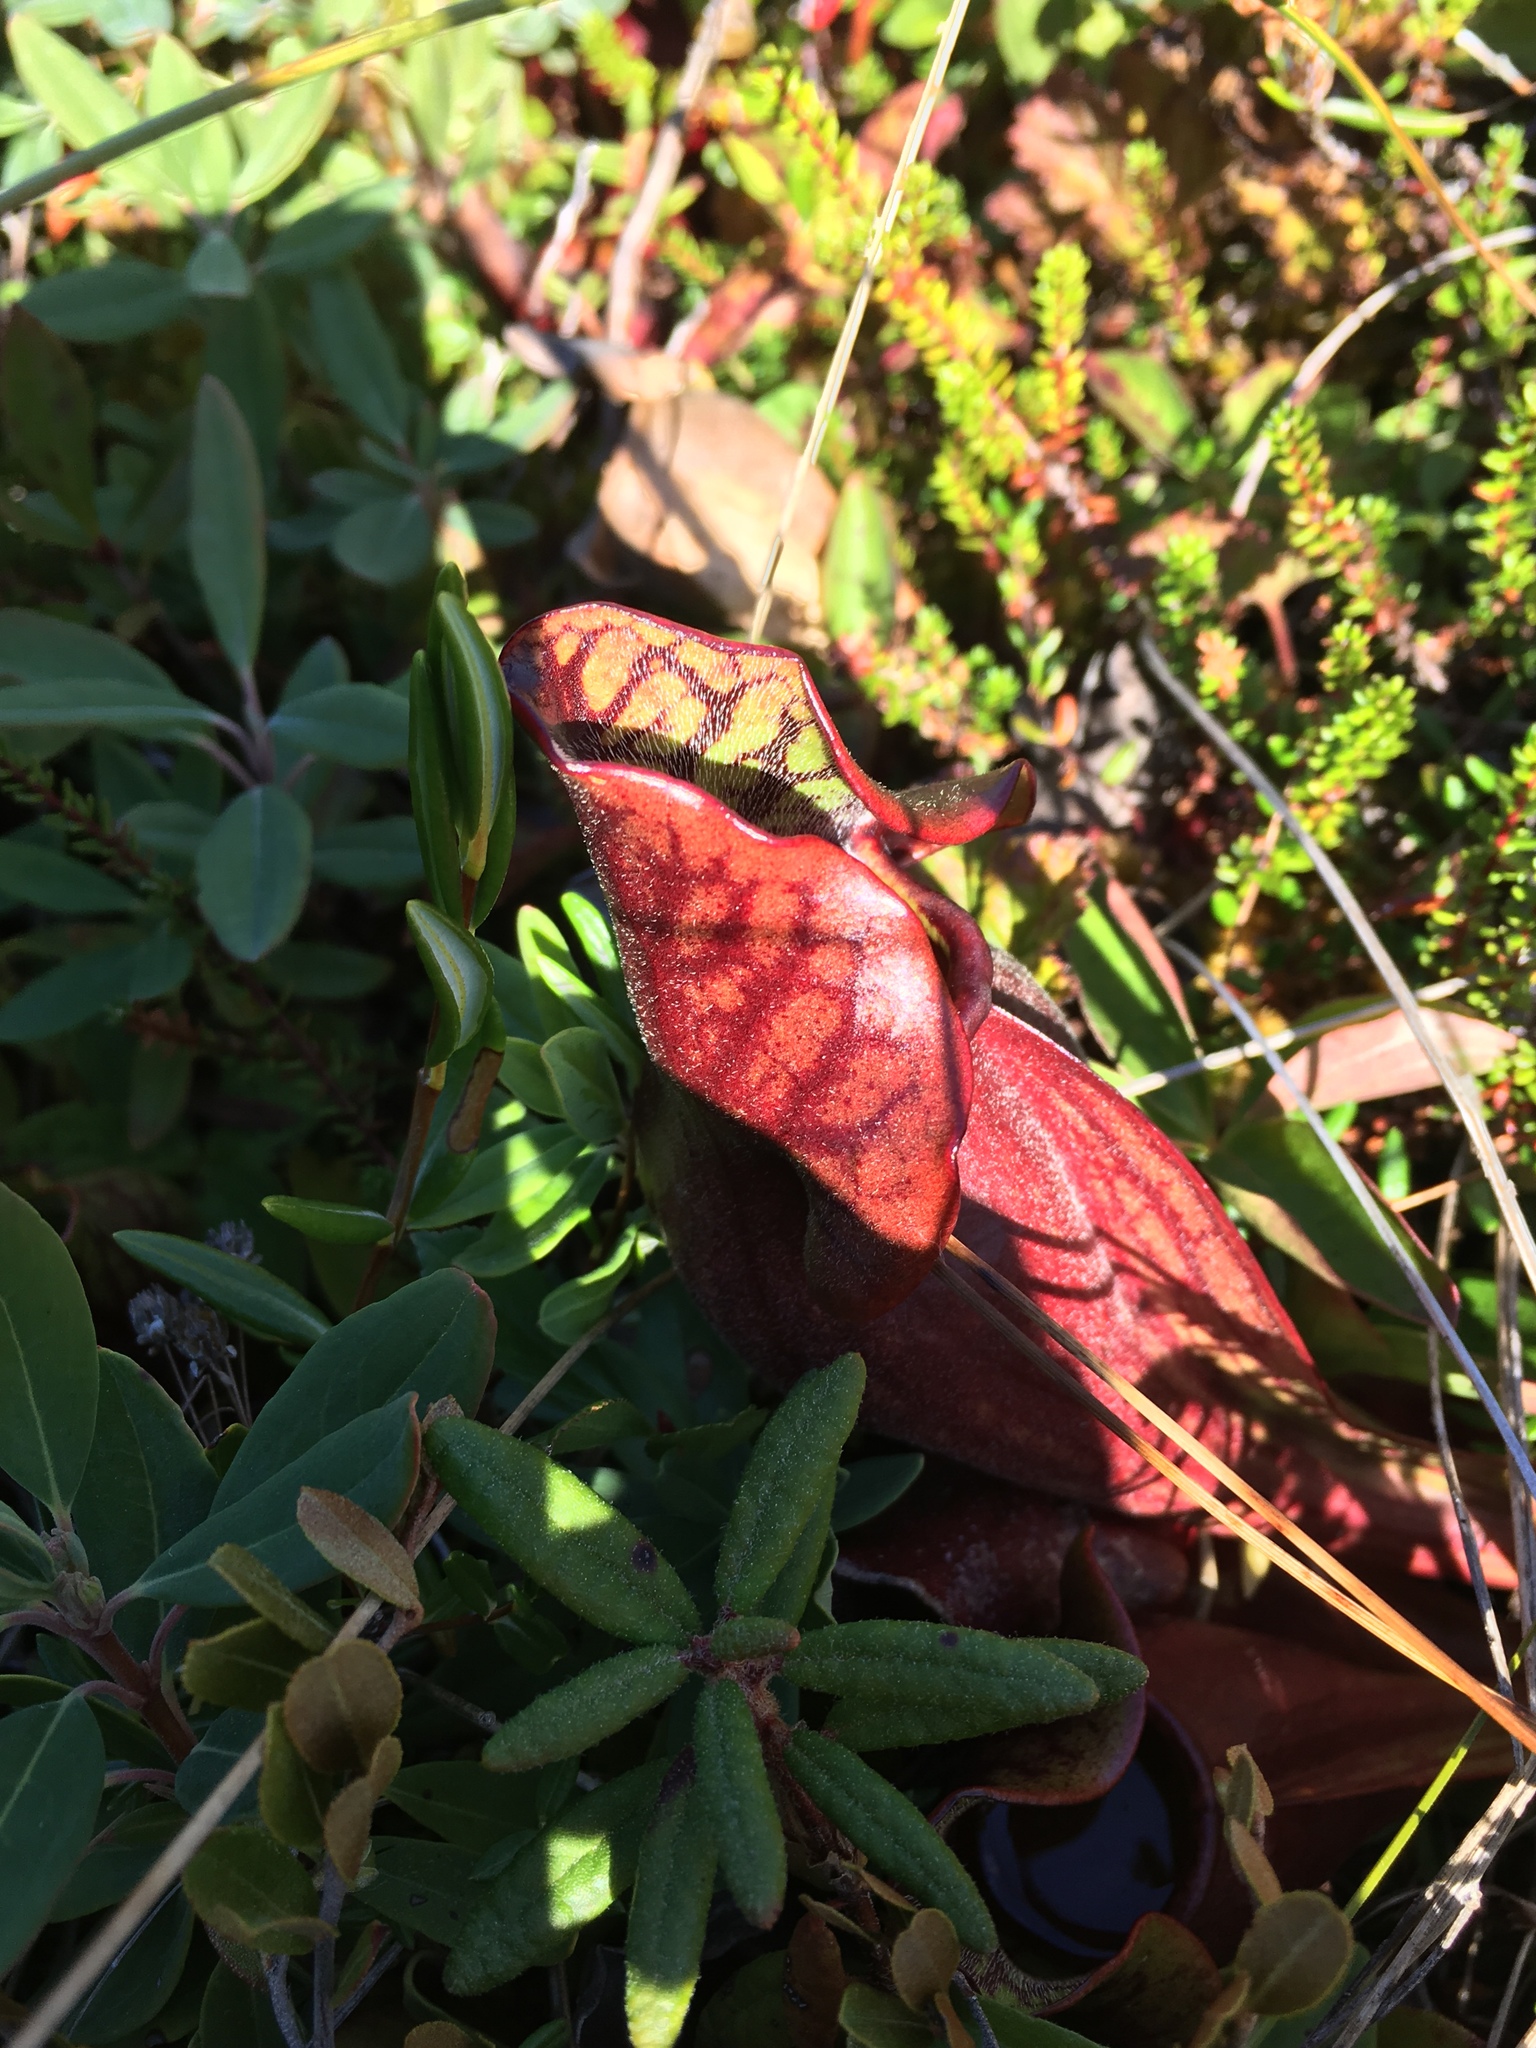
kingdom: Plantae
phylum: Tracheophyta
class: Magnoliopsida
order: Ericales
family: Sarraceniaceae
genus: Sarracenia
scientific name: Sarracenia purpurea
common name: Pitcherplant
